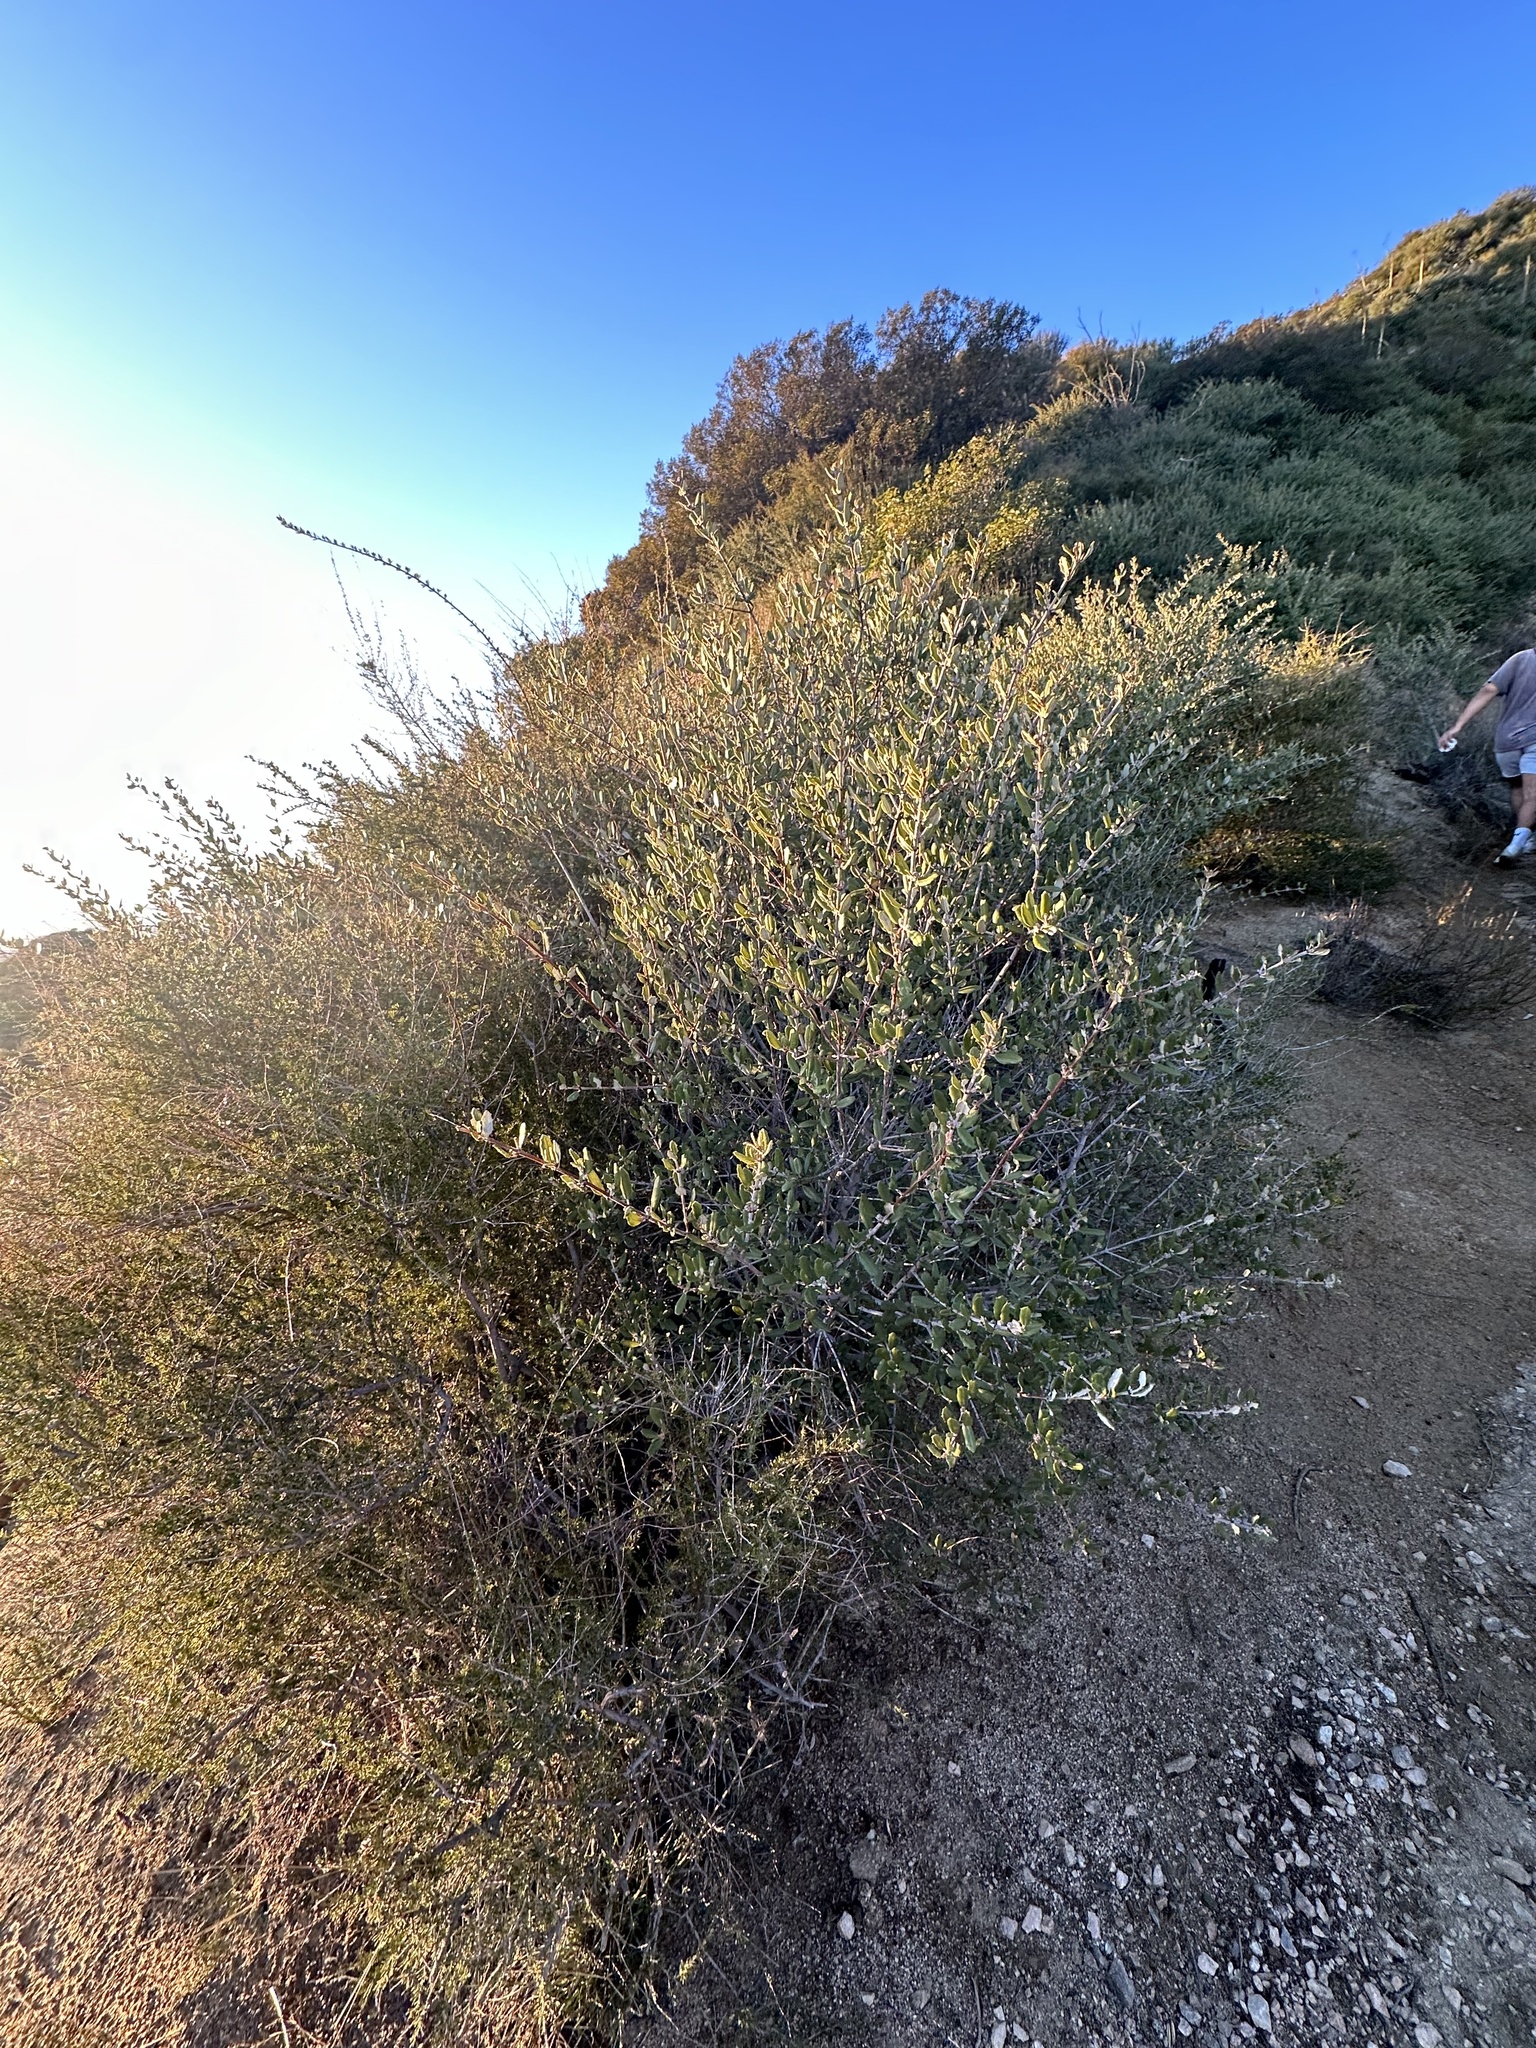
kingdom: Plantae
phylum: Tracheophyta
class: Magnoliopsida
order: Rosales
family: Rhamnaceae
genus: Ceanothus
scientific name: Ceanothus crassifolius
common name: Hoaryleaf ceanothus
